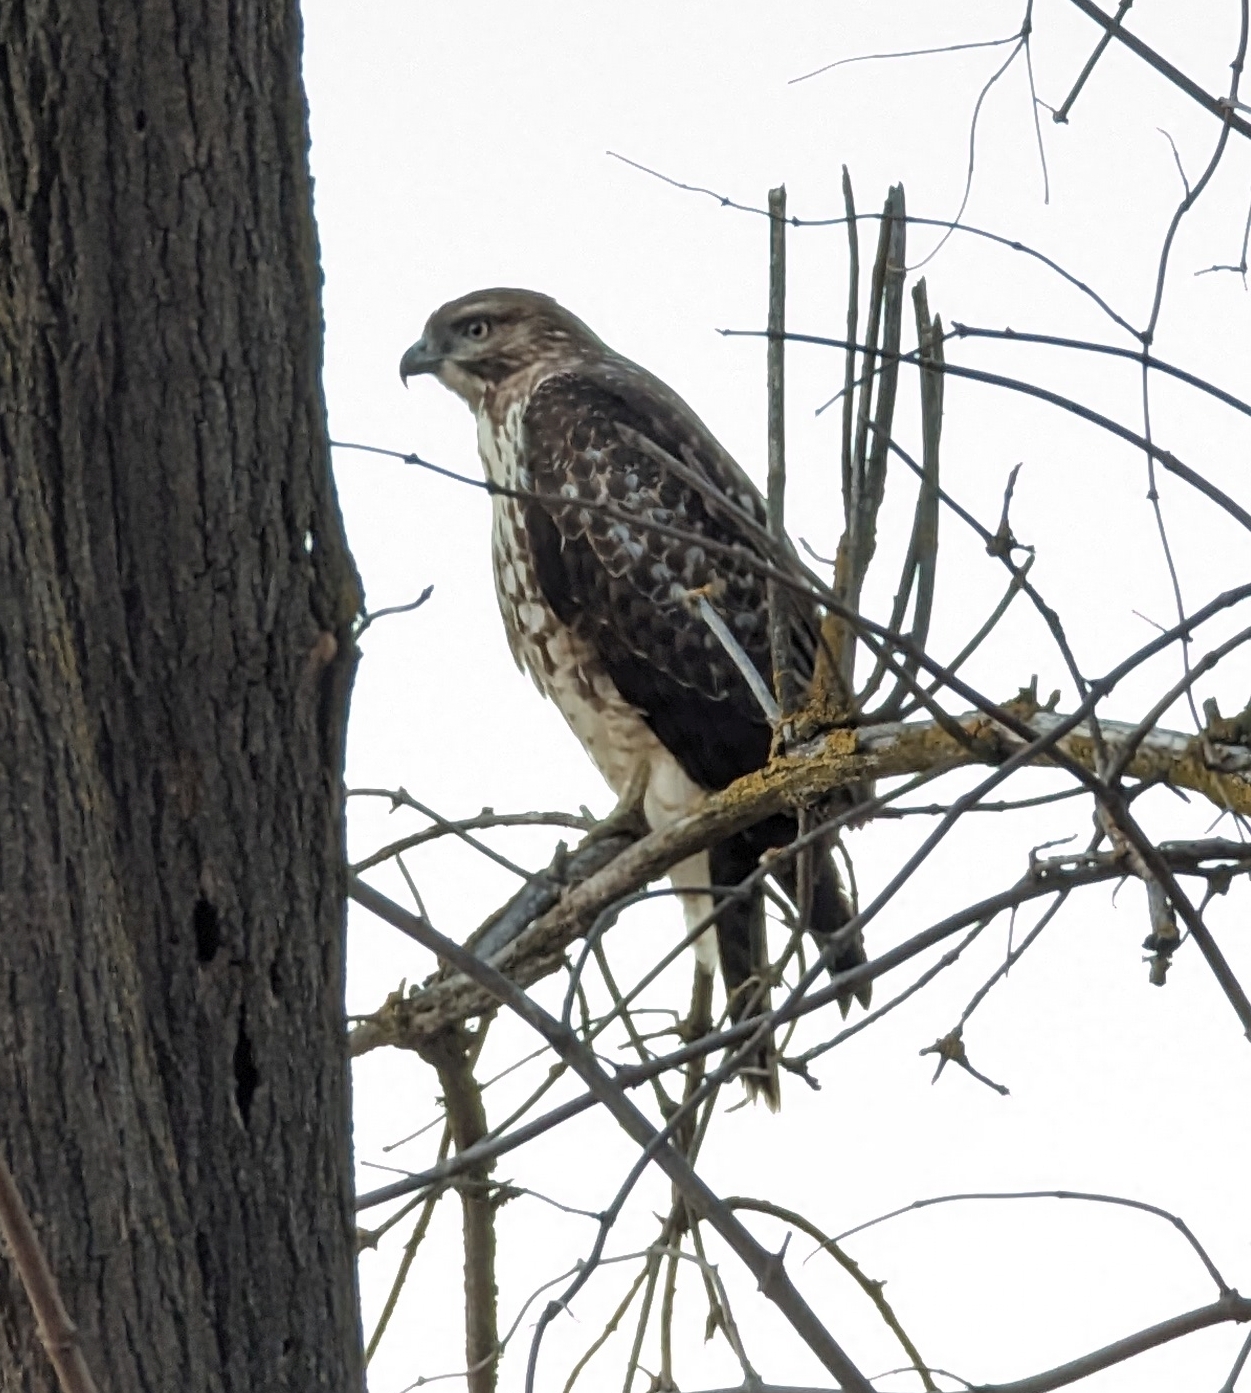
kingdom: Animalia
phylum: Chordata
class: Aves
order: Accipitriformes
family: Accipitridae
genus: Buteo
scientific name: Buteo jamaicensis
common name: Red-tailed hawk
